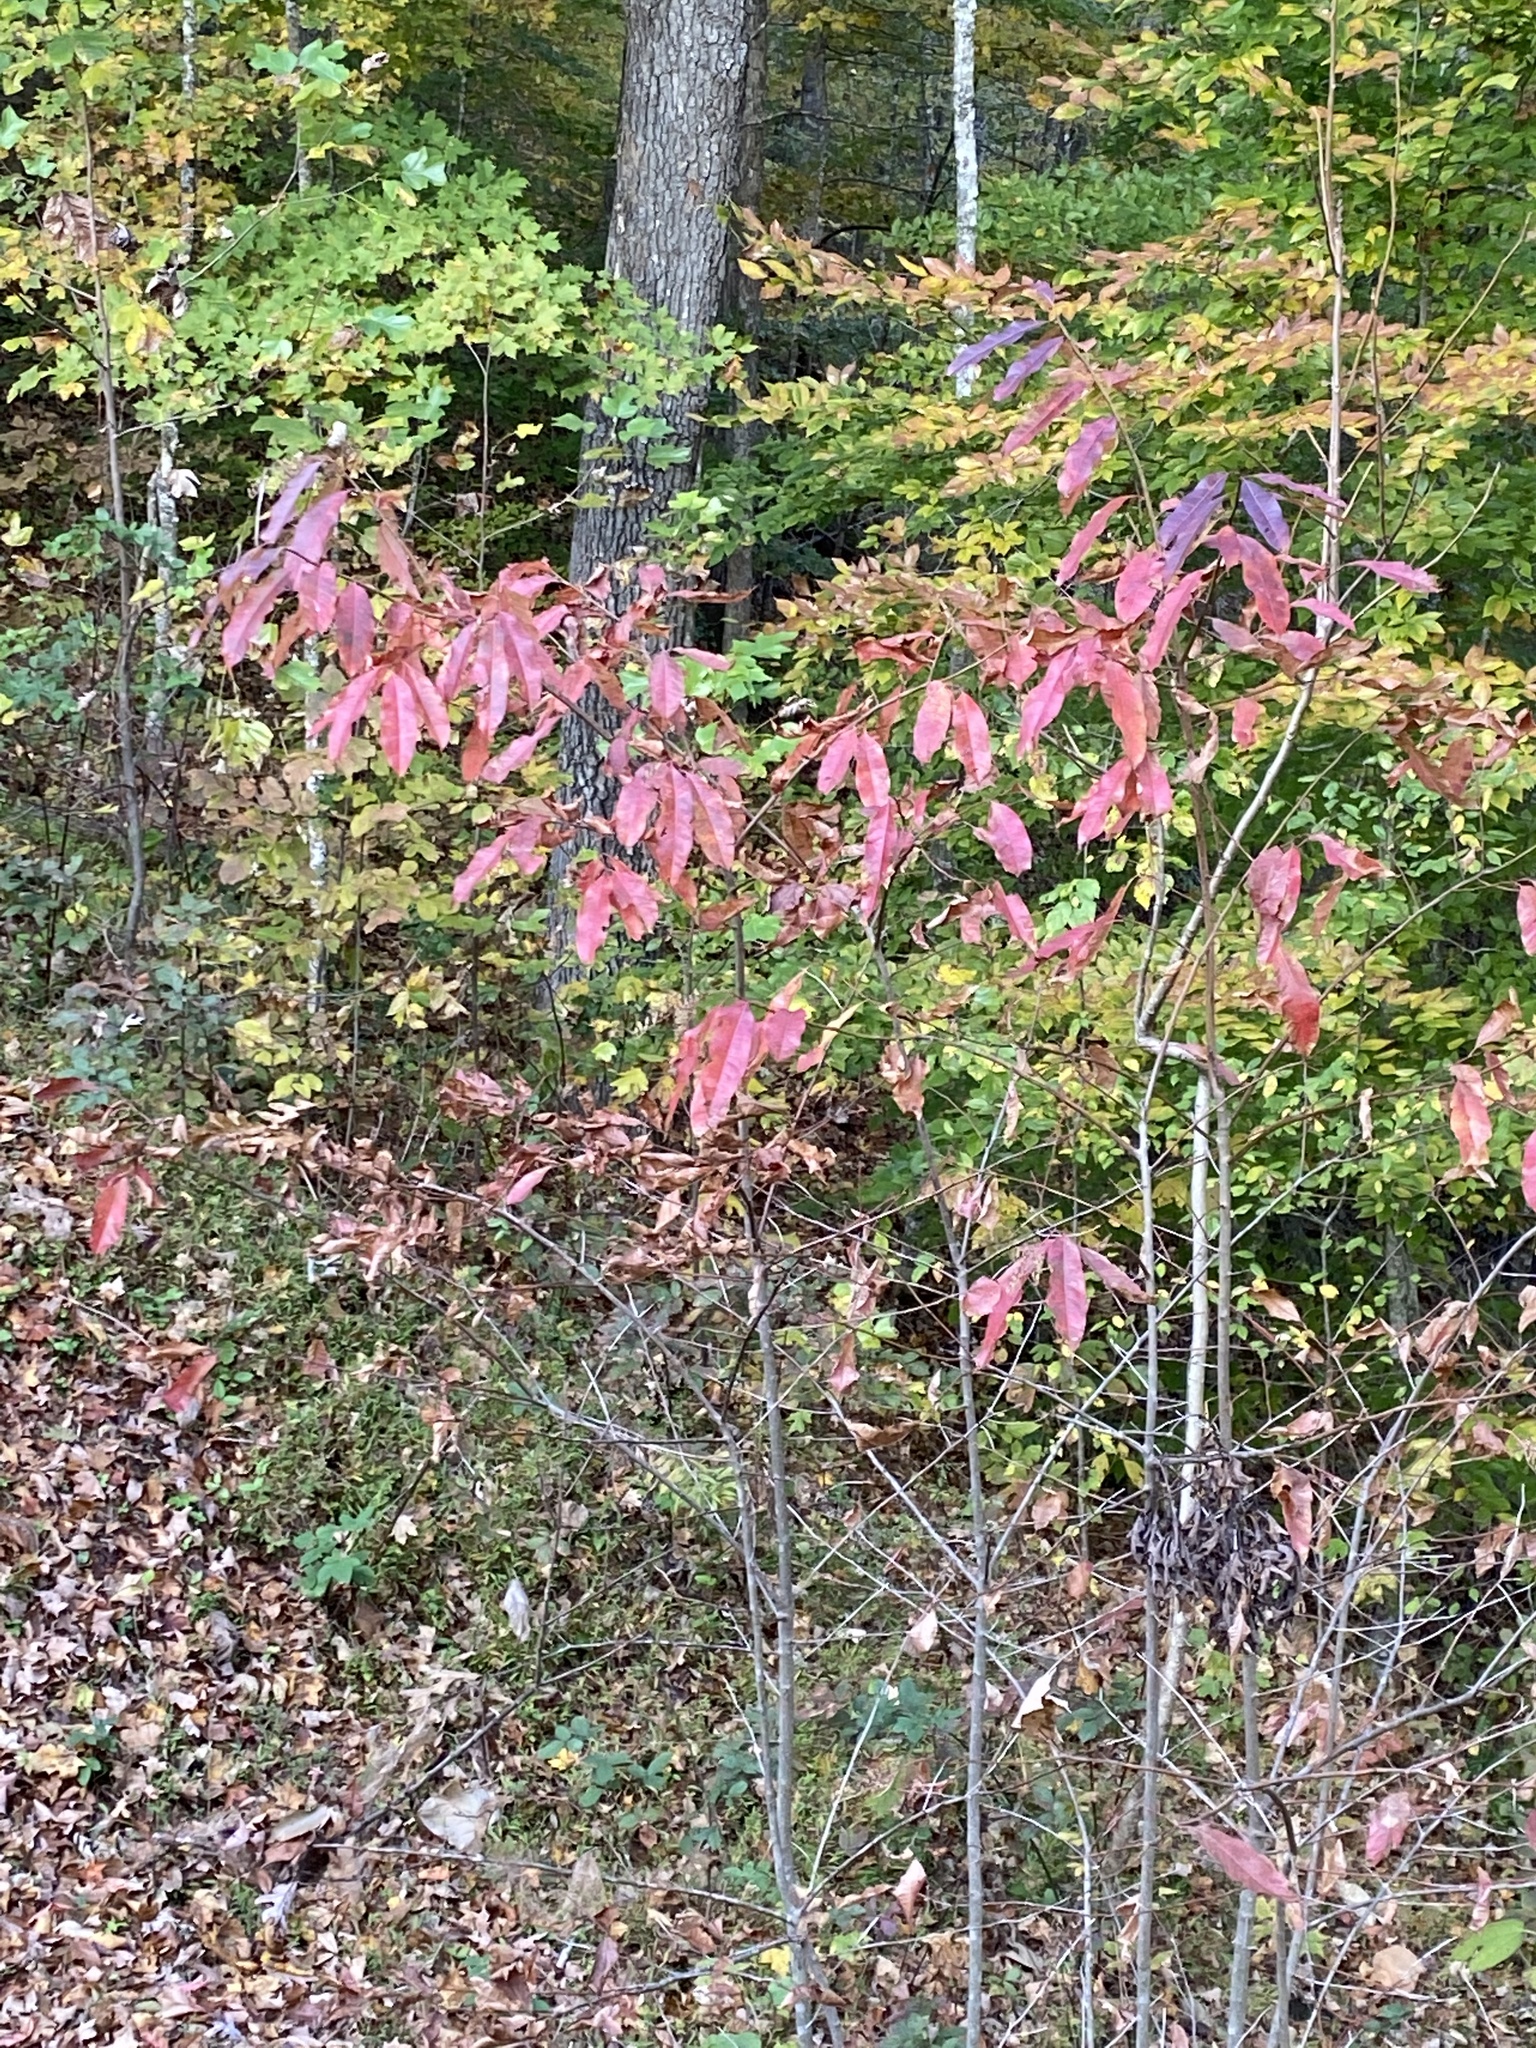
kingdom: Plantae
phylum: Tracheophyta
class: Magnoliopsida
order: Ericales
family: Ericaceae
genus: Oxydendrum
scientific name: Oxydendrum arboreum
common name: Sourwood
